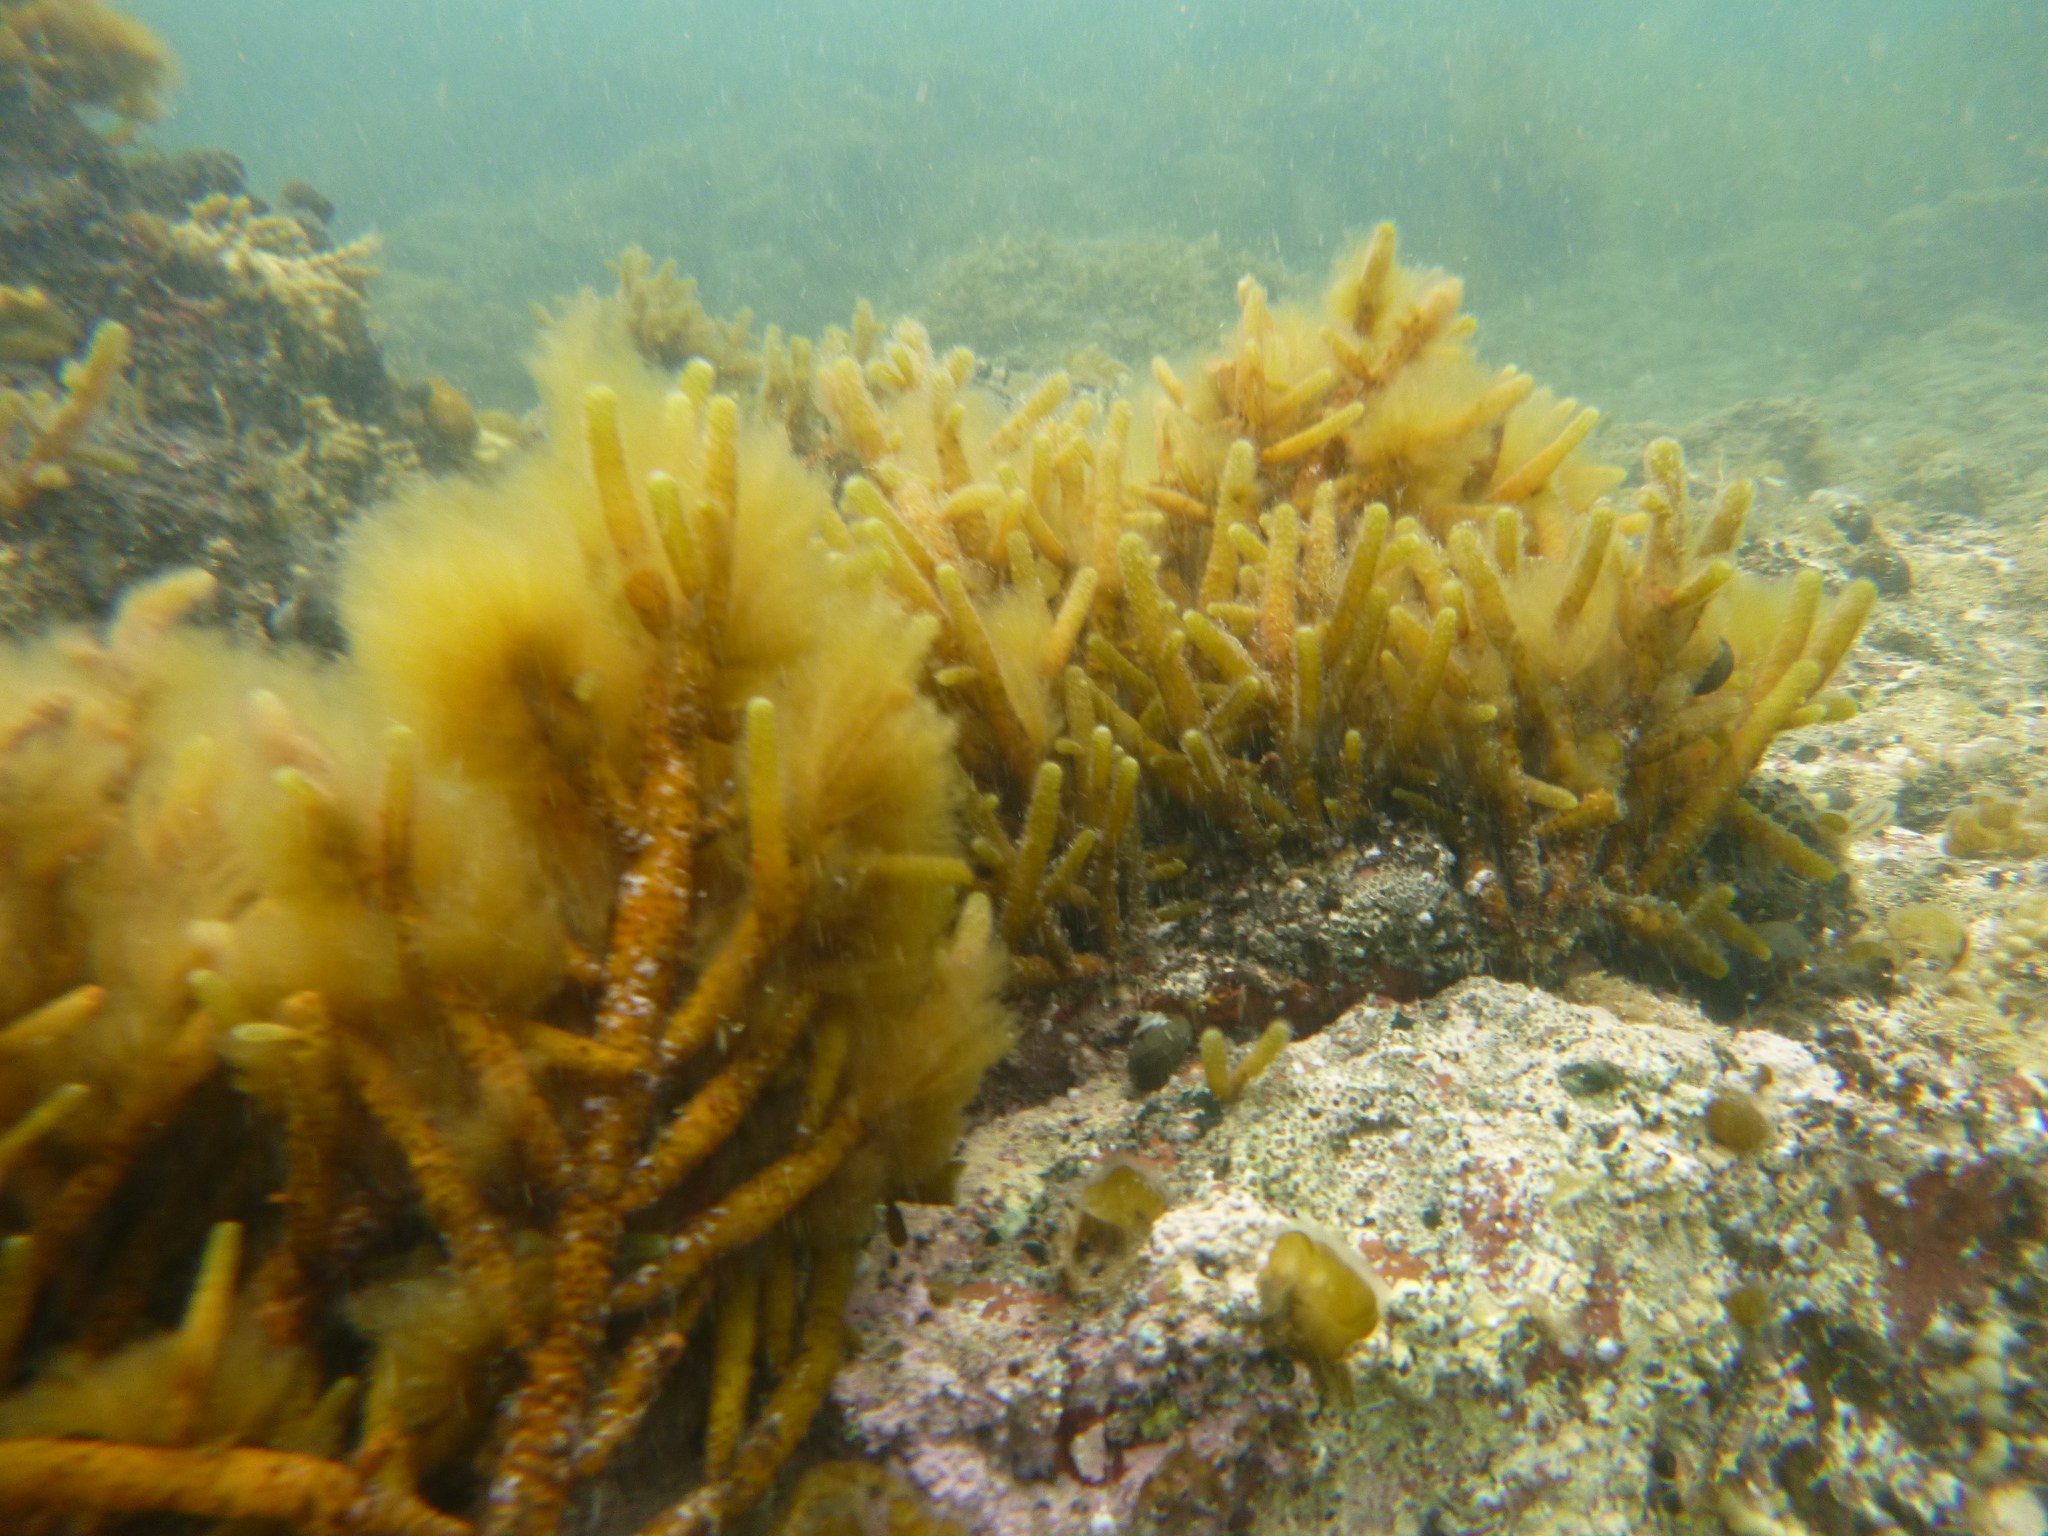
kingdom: Chromista
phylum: Ochrophyta
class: Phaeophyceae
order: Scytothamnales
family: Splachnidiaceae
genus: Splachnidium
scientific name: Splachnidium rugosum
